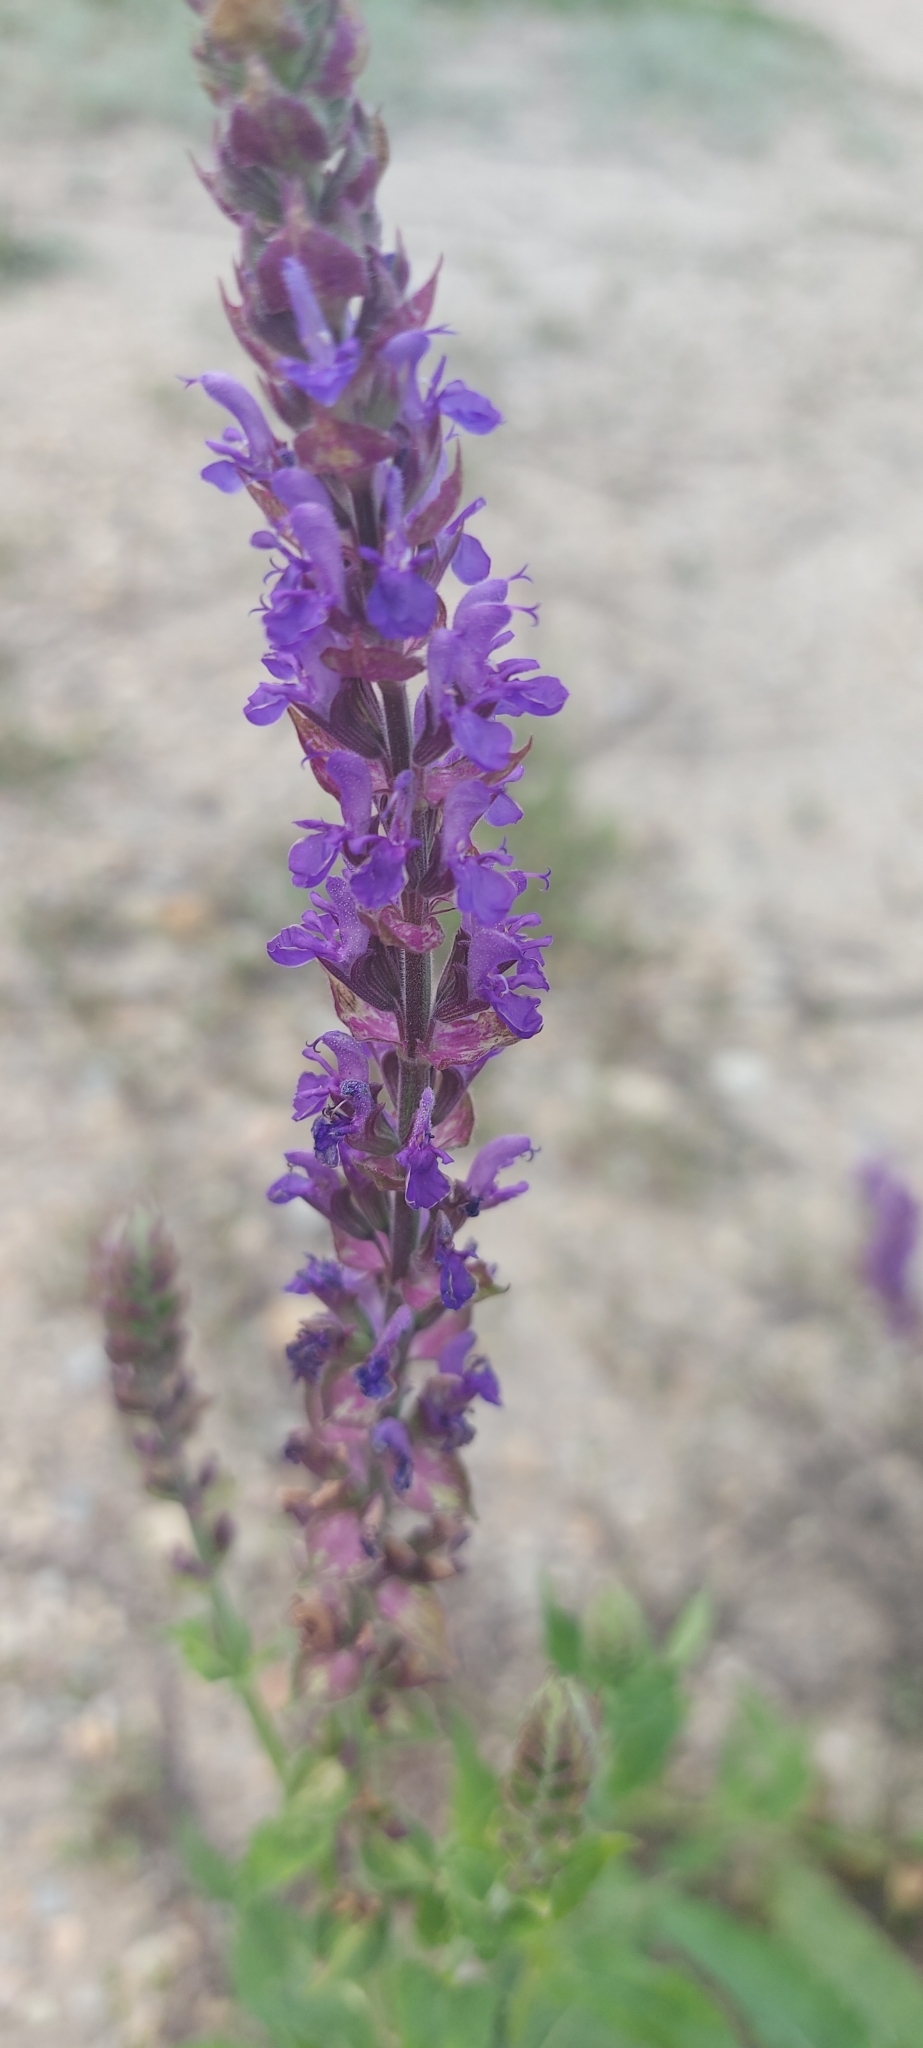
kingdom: Plantae
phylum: Tracheophyta
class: Magnoliopsida
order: Lamiales
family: Lamiaceae
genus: Salvia
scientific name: Salvia nemorosa
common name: Balkan clary
